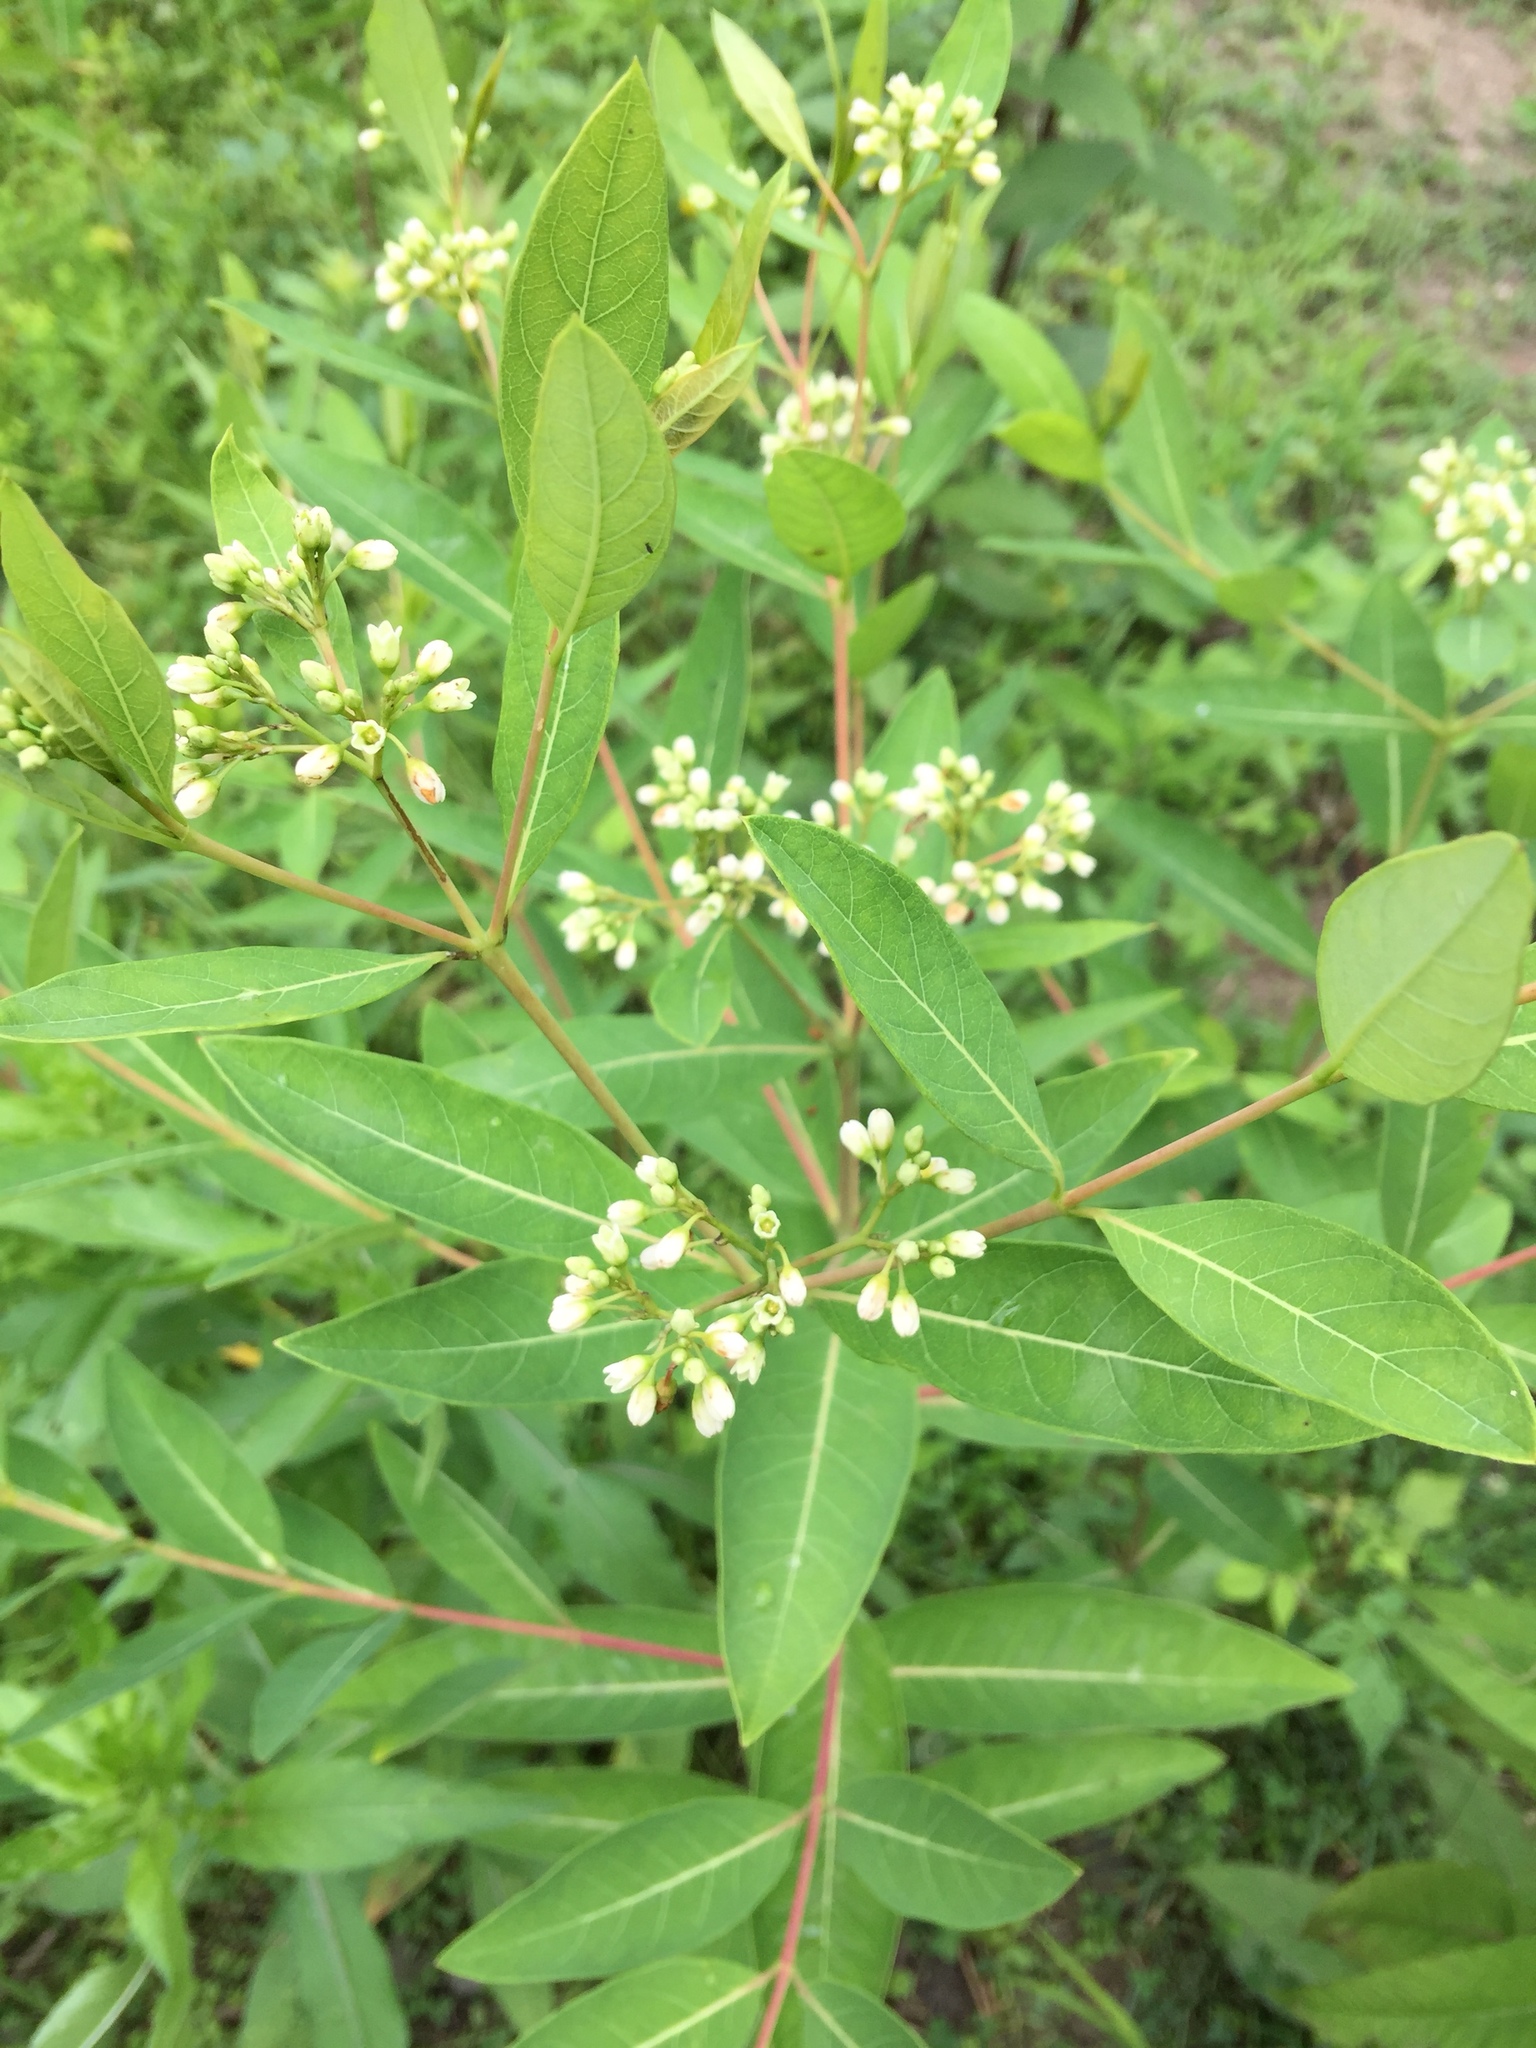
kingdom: Plantae
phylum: Tracheophyta
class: Magnoliopsida
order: Gentianales
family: Apocynaceae
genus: Apocynum
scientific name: Apocynum cannabinum
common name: Hemp dogbane
